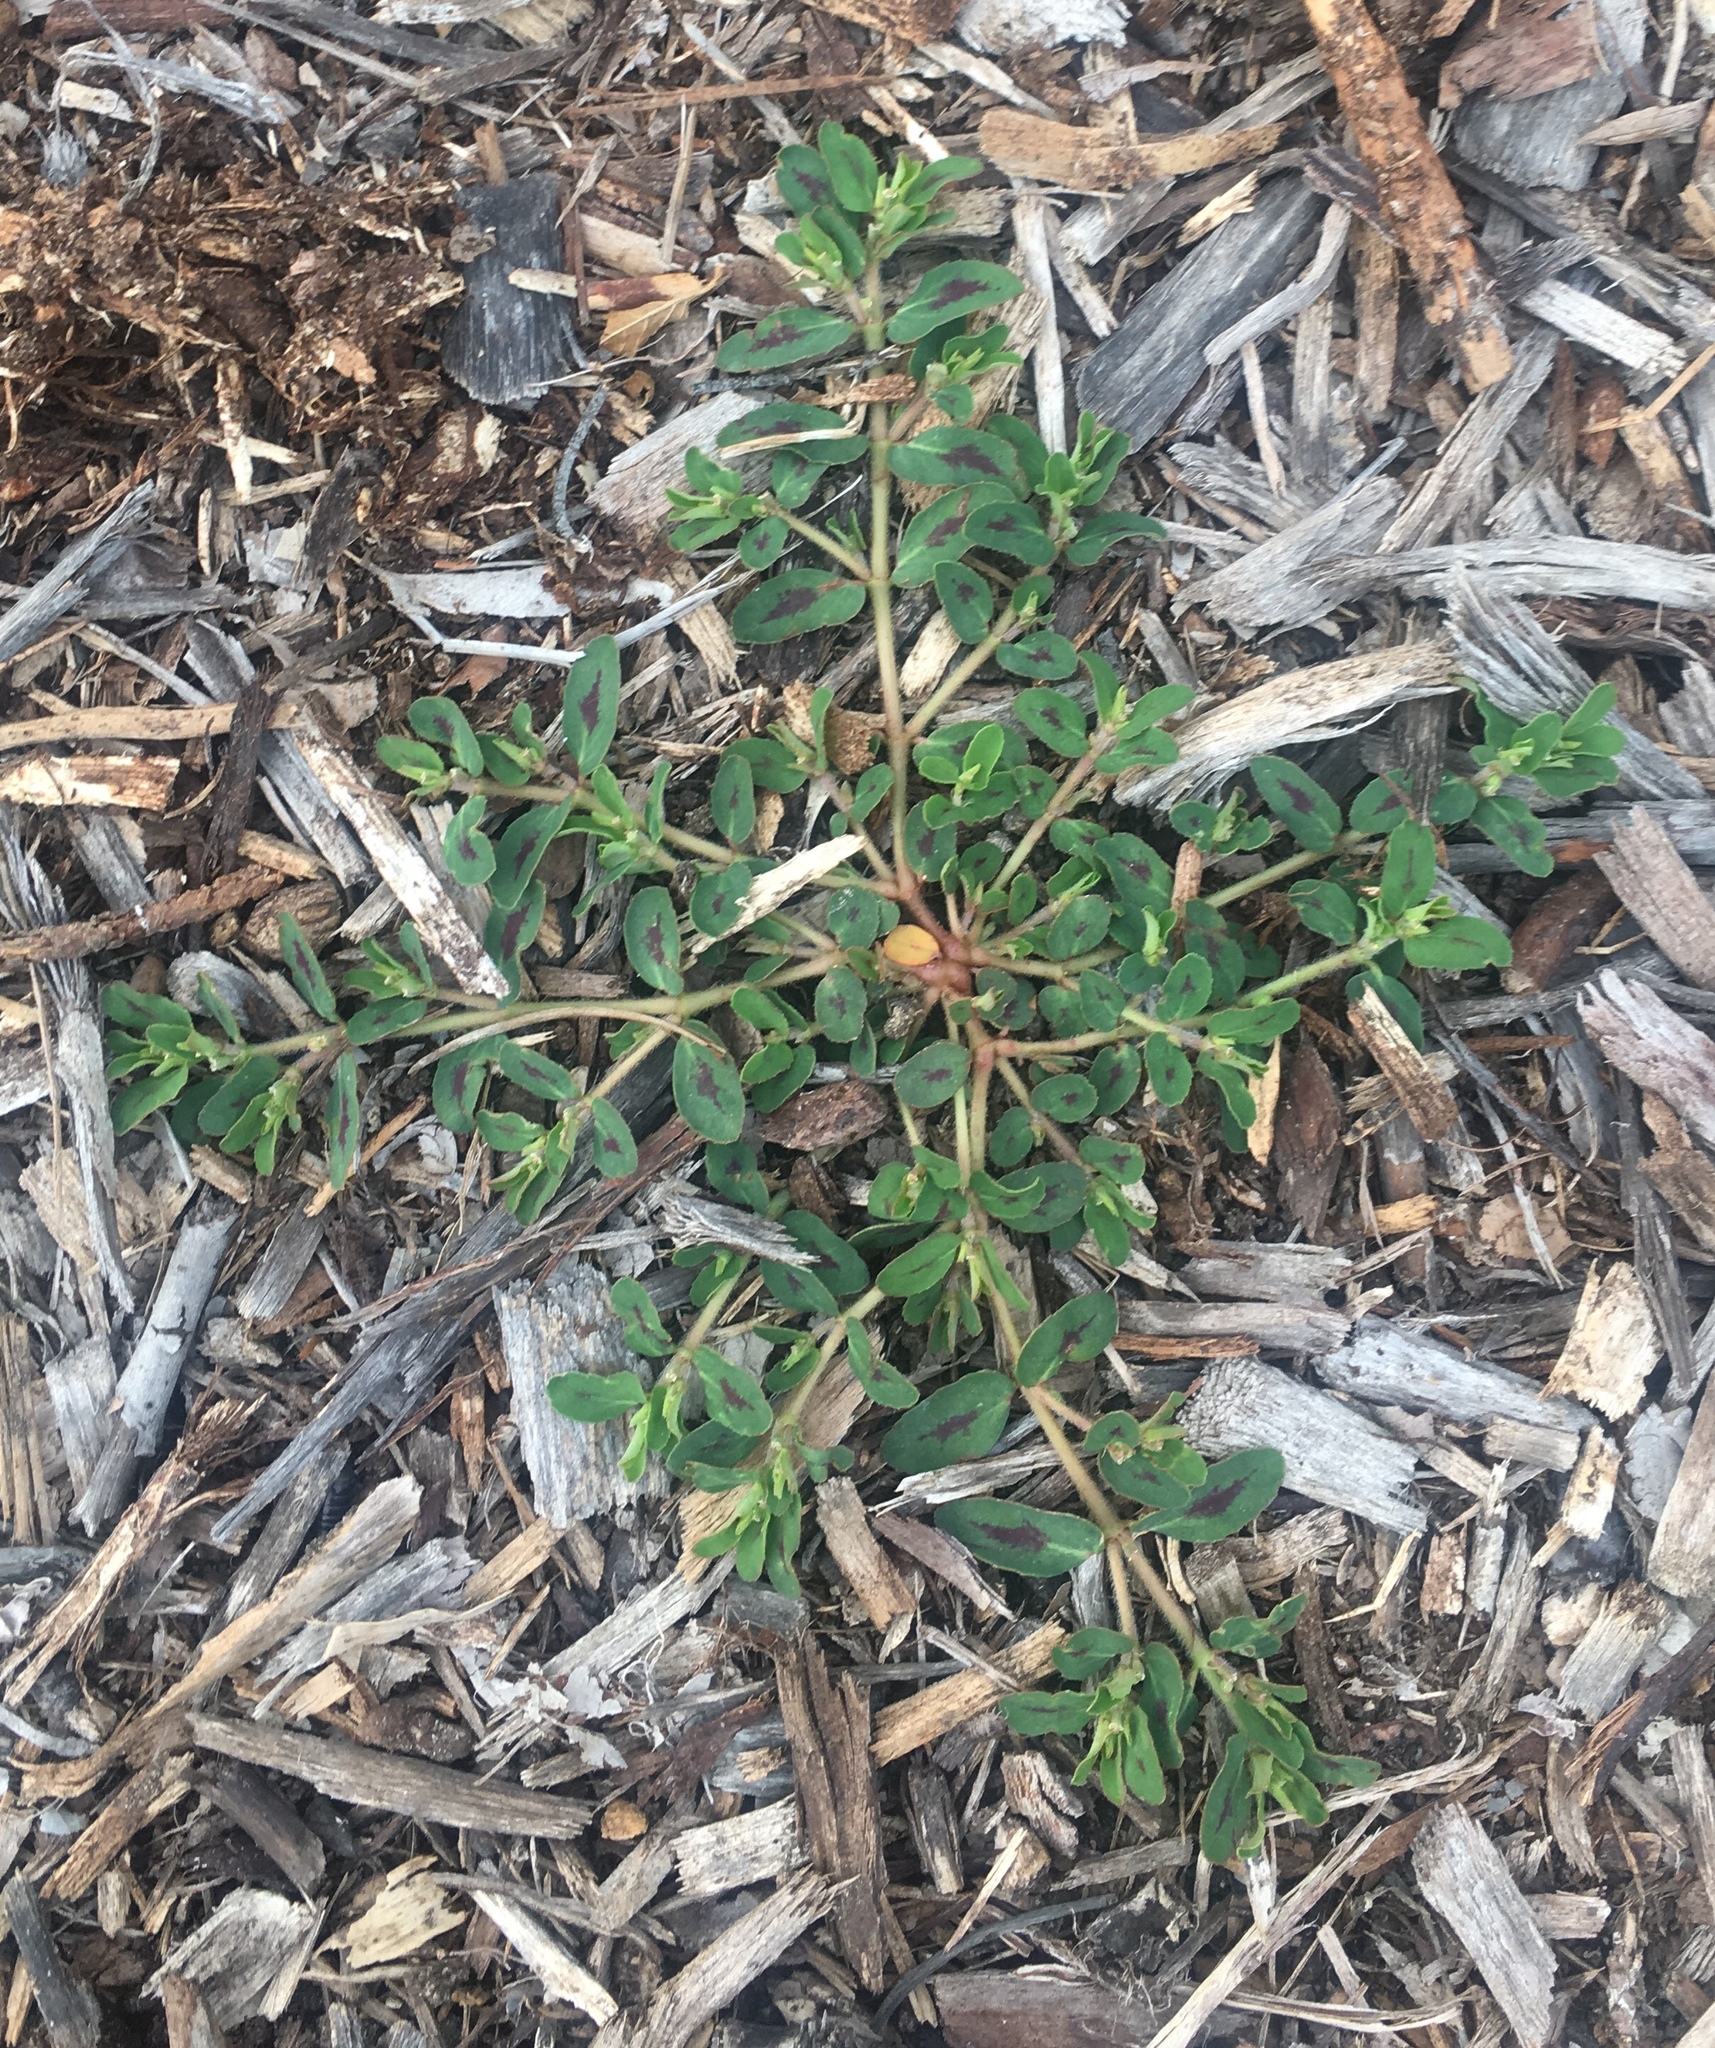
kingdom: Plantae
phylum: Tracheophyta
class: Magnoliopsida
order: Malpighiales
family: Euphorbiaceae
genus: Euphorbia
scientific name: Euphorbia maculata
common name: Spotted spurge
